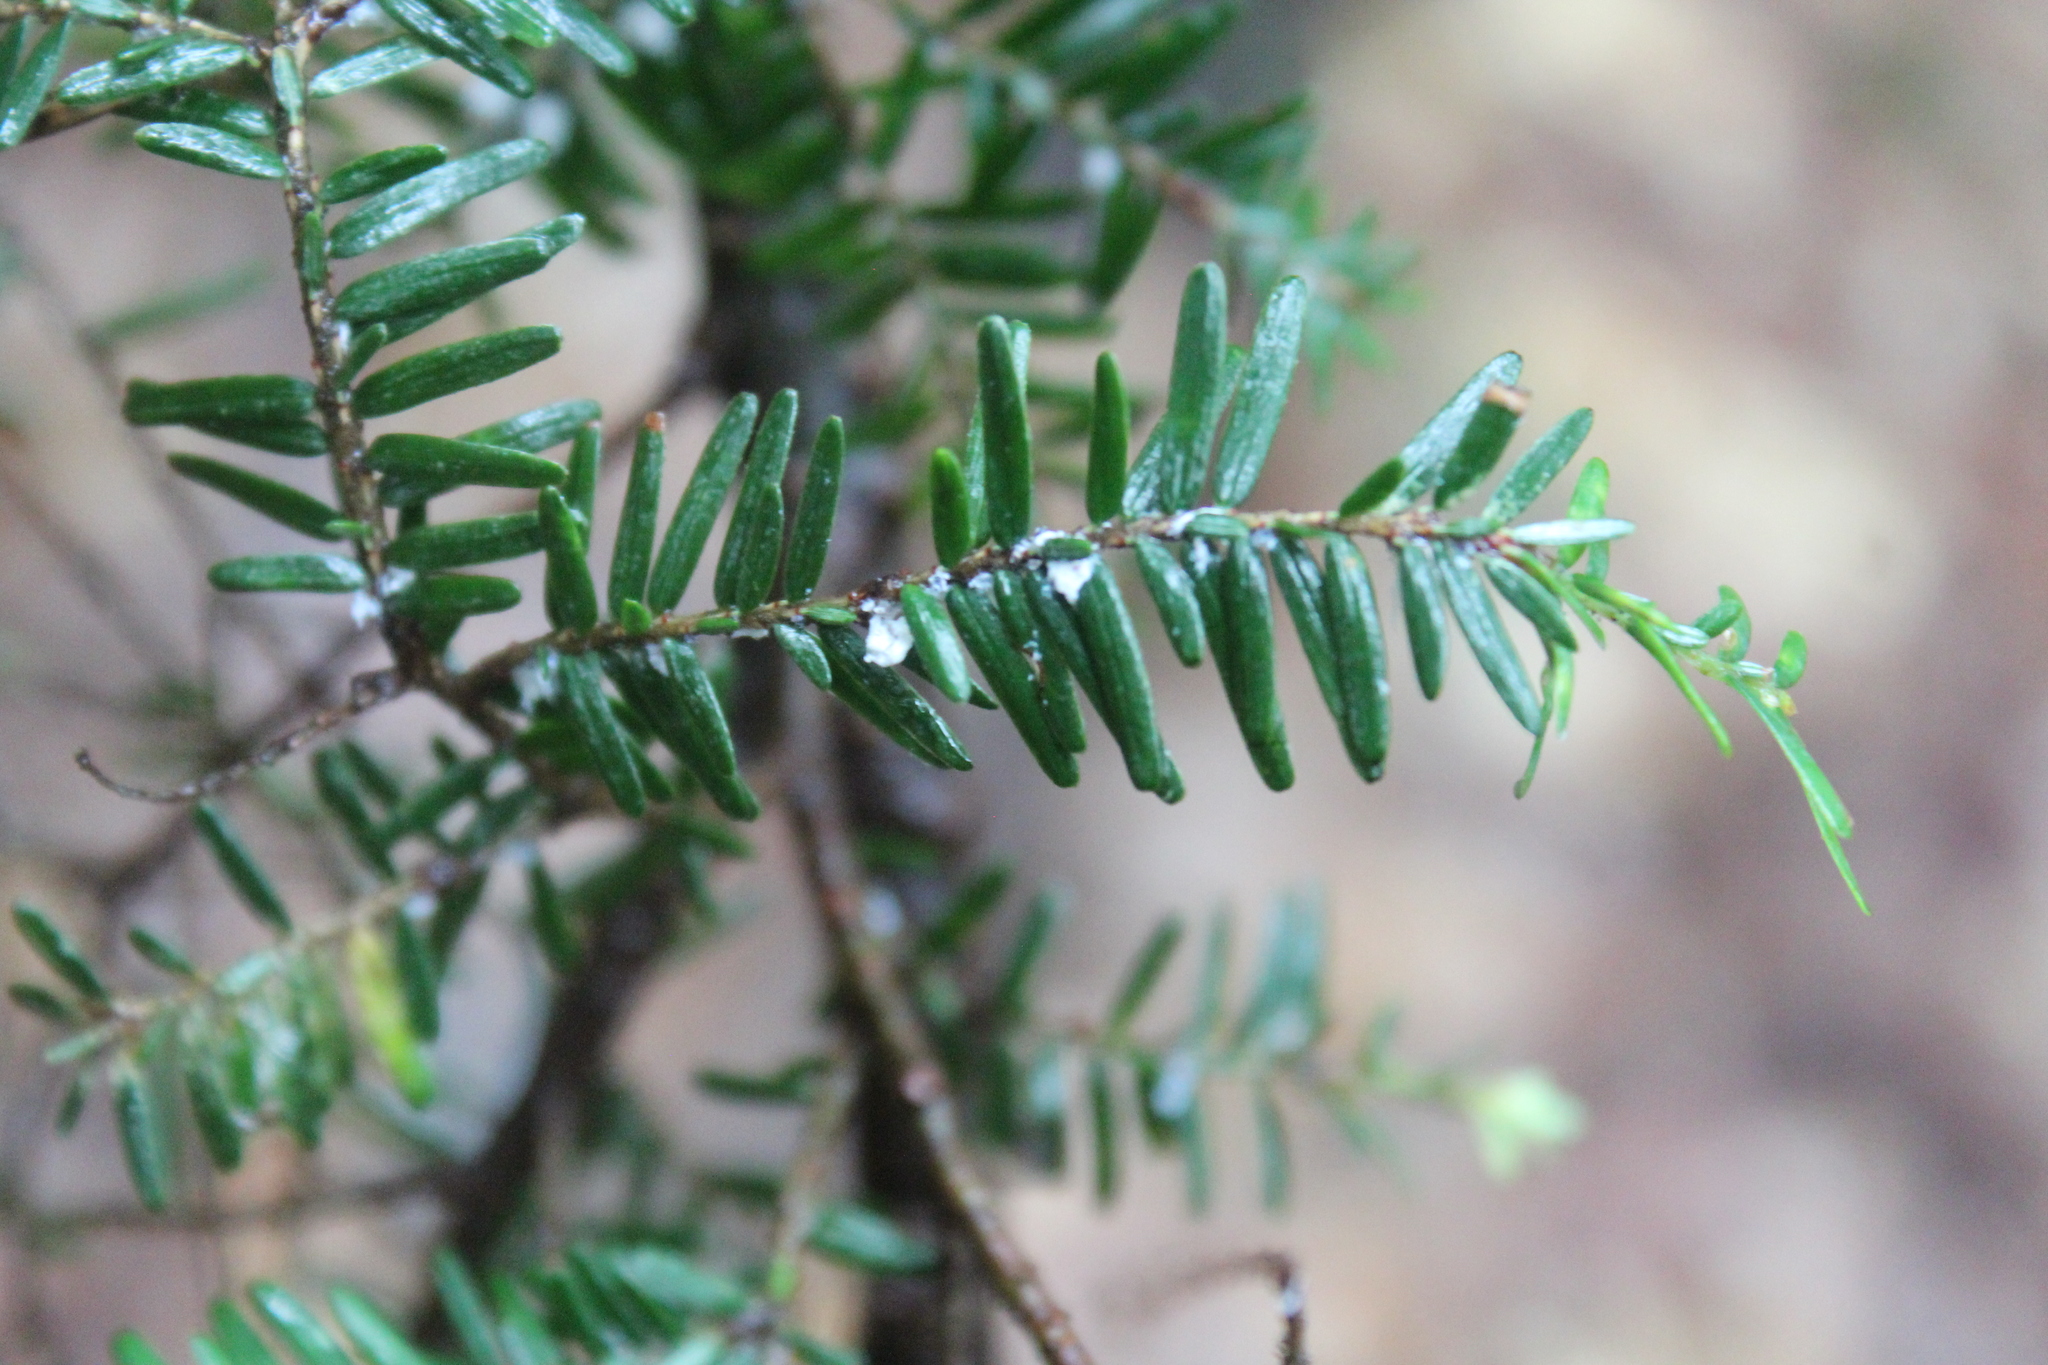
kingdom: Animalia
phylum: Arthropoda
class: Insecta
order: Hemiptera
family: Adelgidae
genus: Adelges
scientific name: Adelges tsugae
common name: Hemlock woolly adelgid
